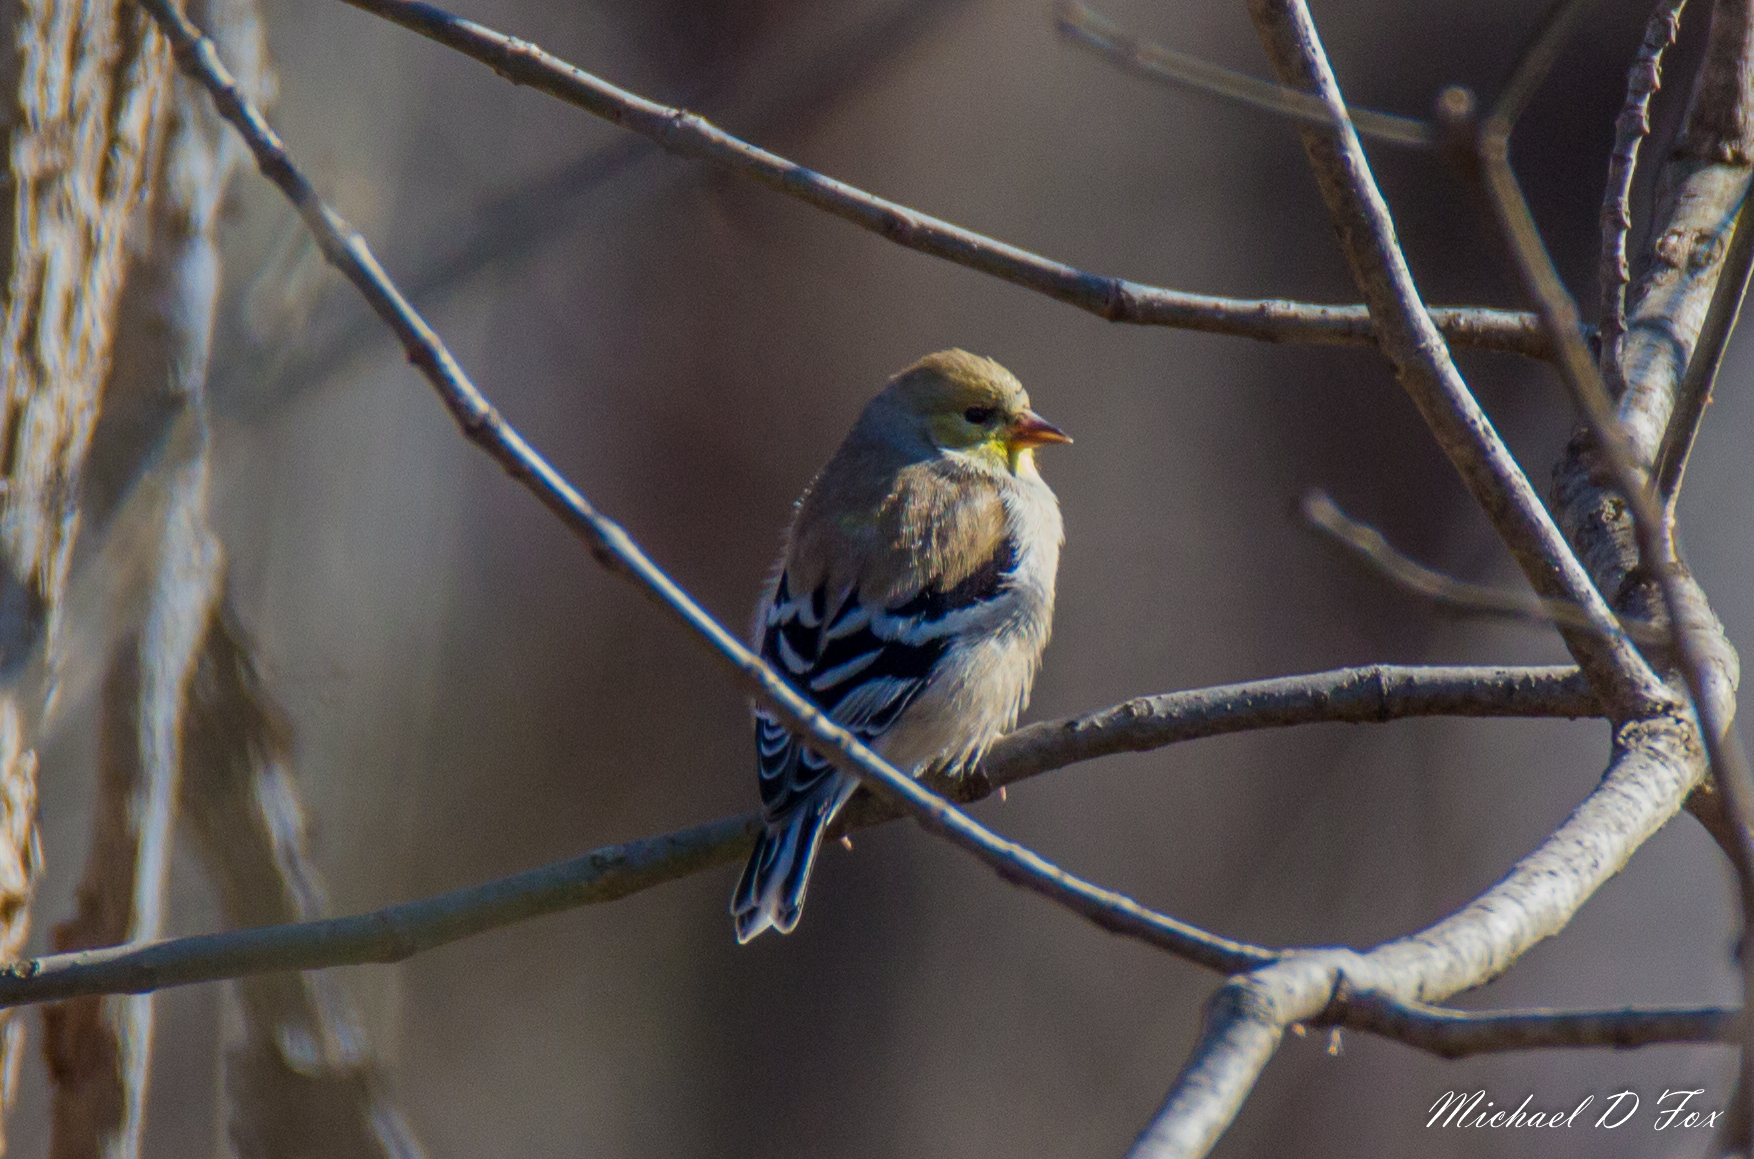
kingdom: Animalia
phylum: Chordata
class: Aves
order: Passeriformes
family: Fringillidae
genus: Spinus
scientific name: Spinus tristis
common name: American goldfinch
